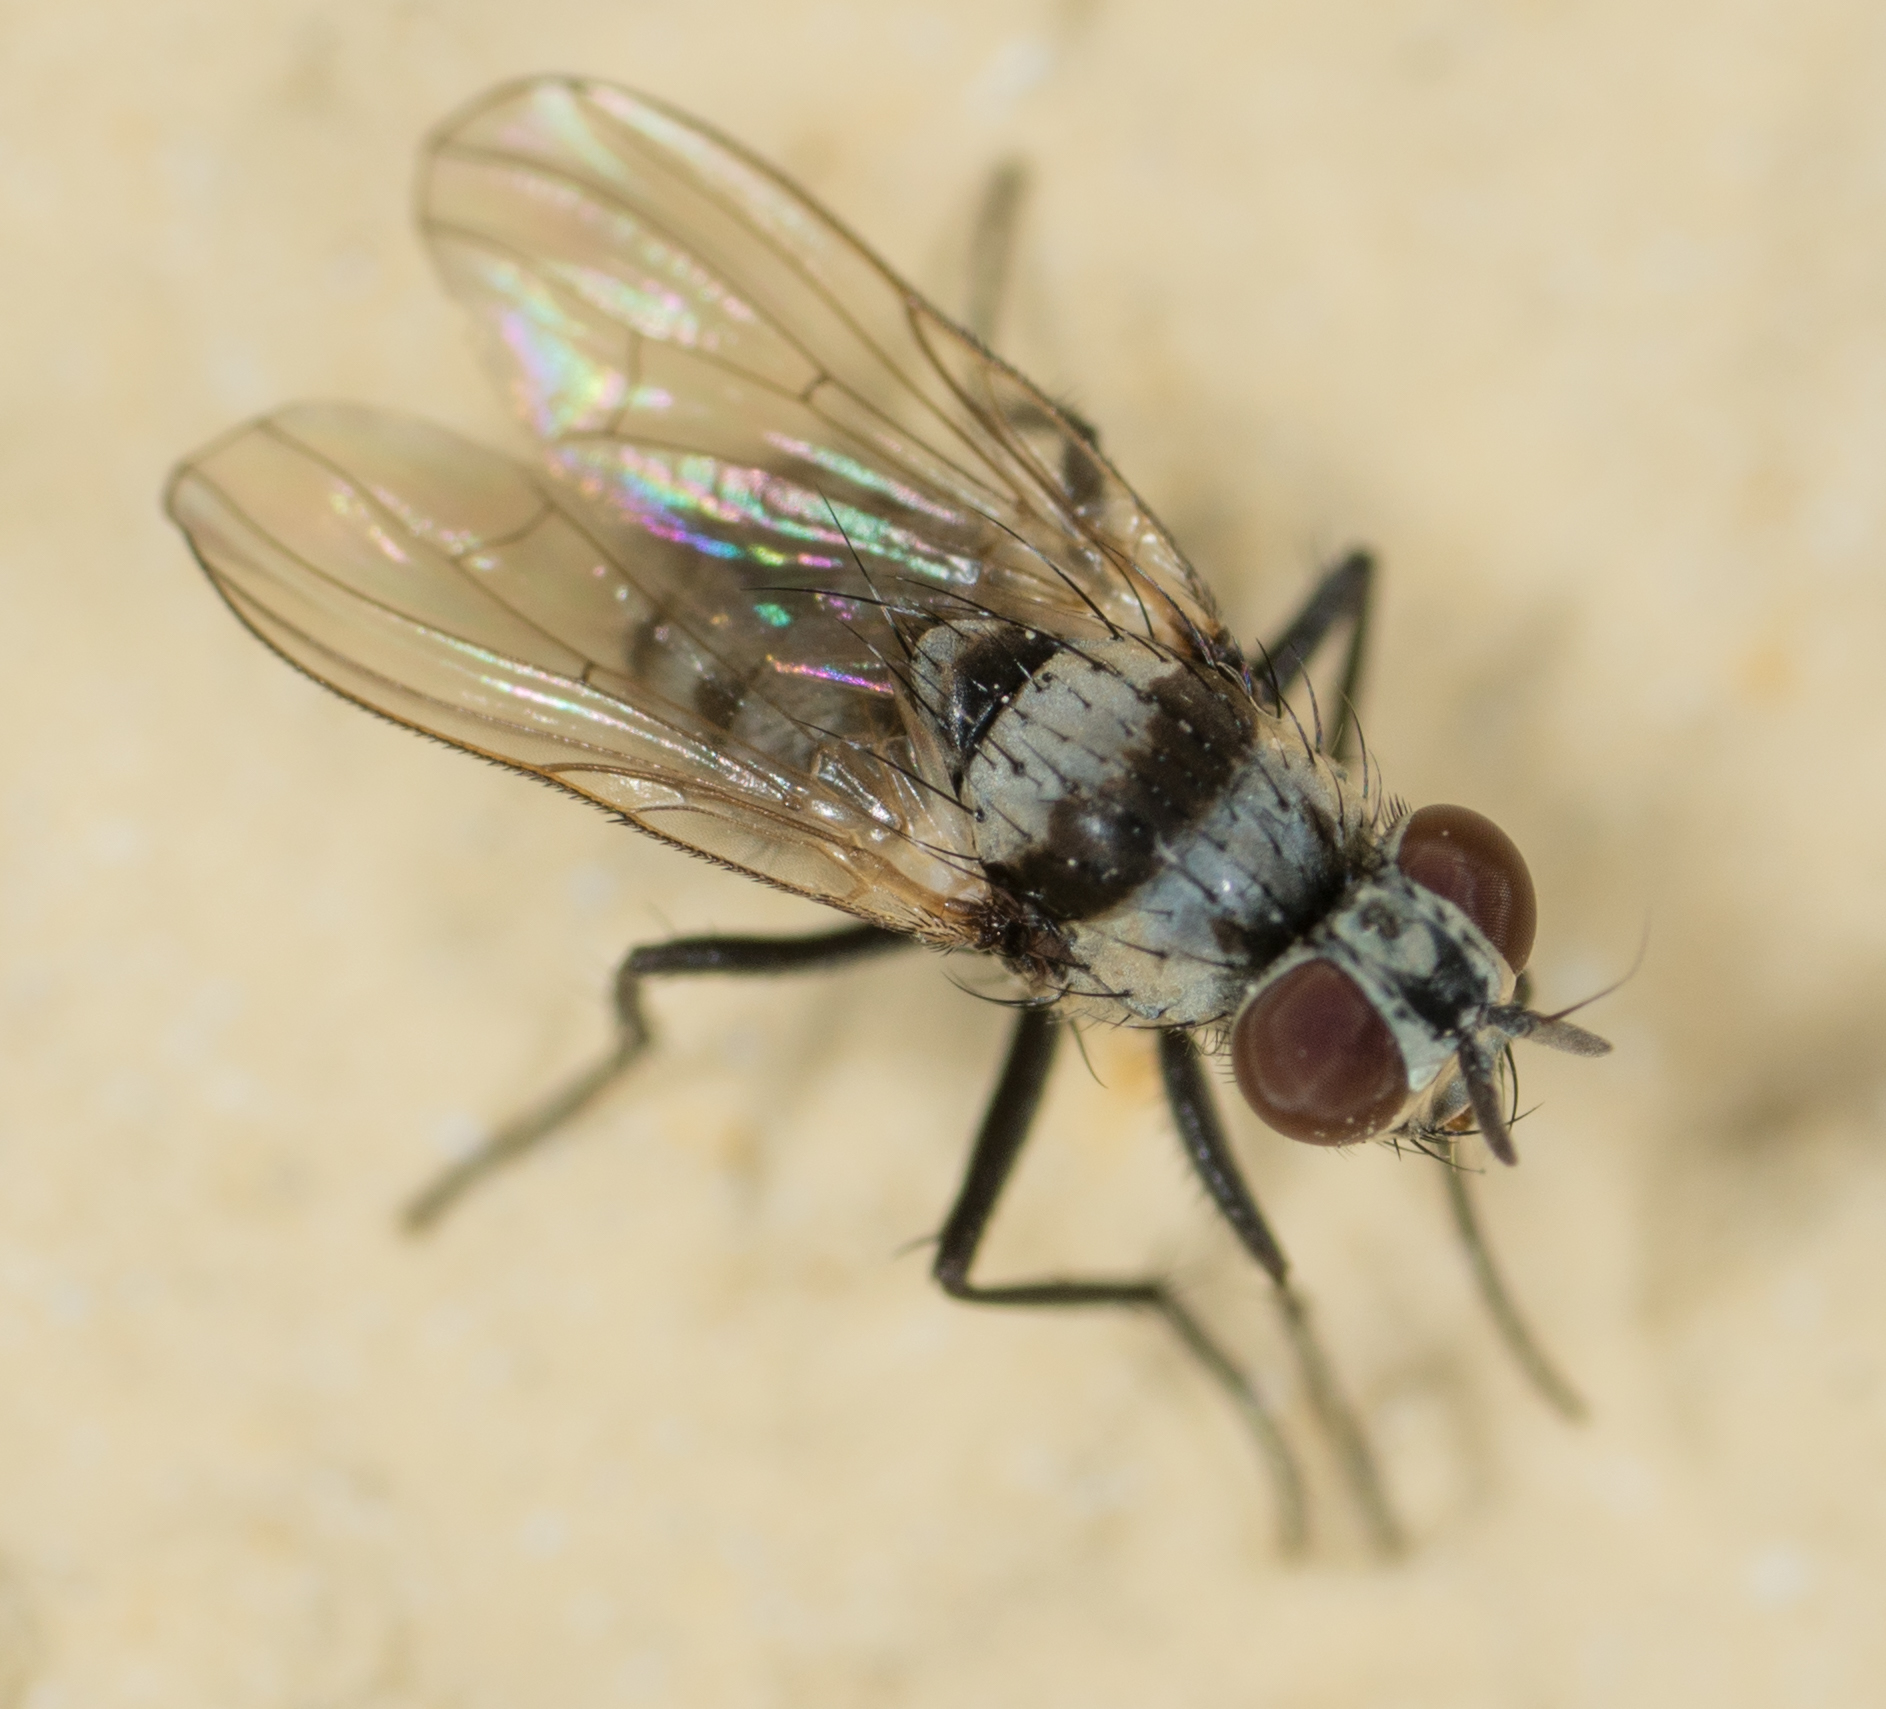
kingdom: Animalia
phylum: Arthropoda
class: Insecta
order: Diptera
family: Anthomyiidae
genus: Anthomyia
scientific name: Anthomyia illocata
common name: Fly
